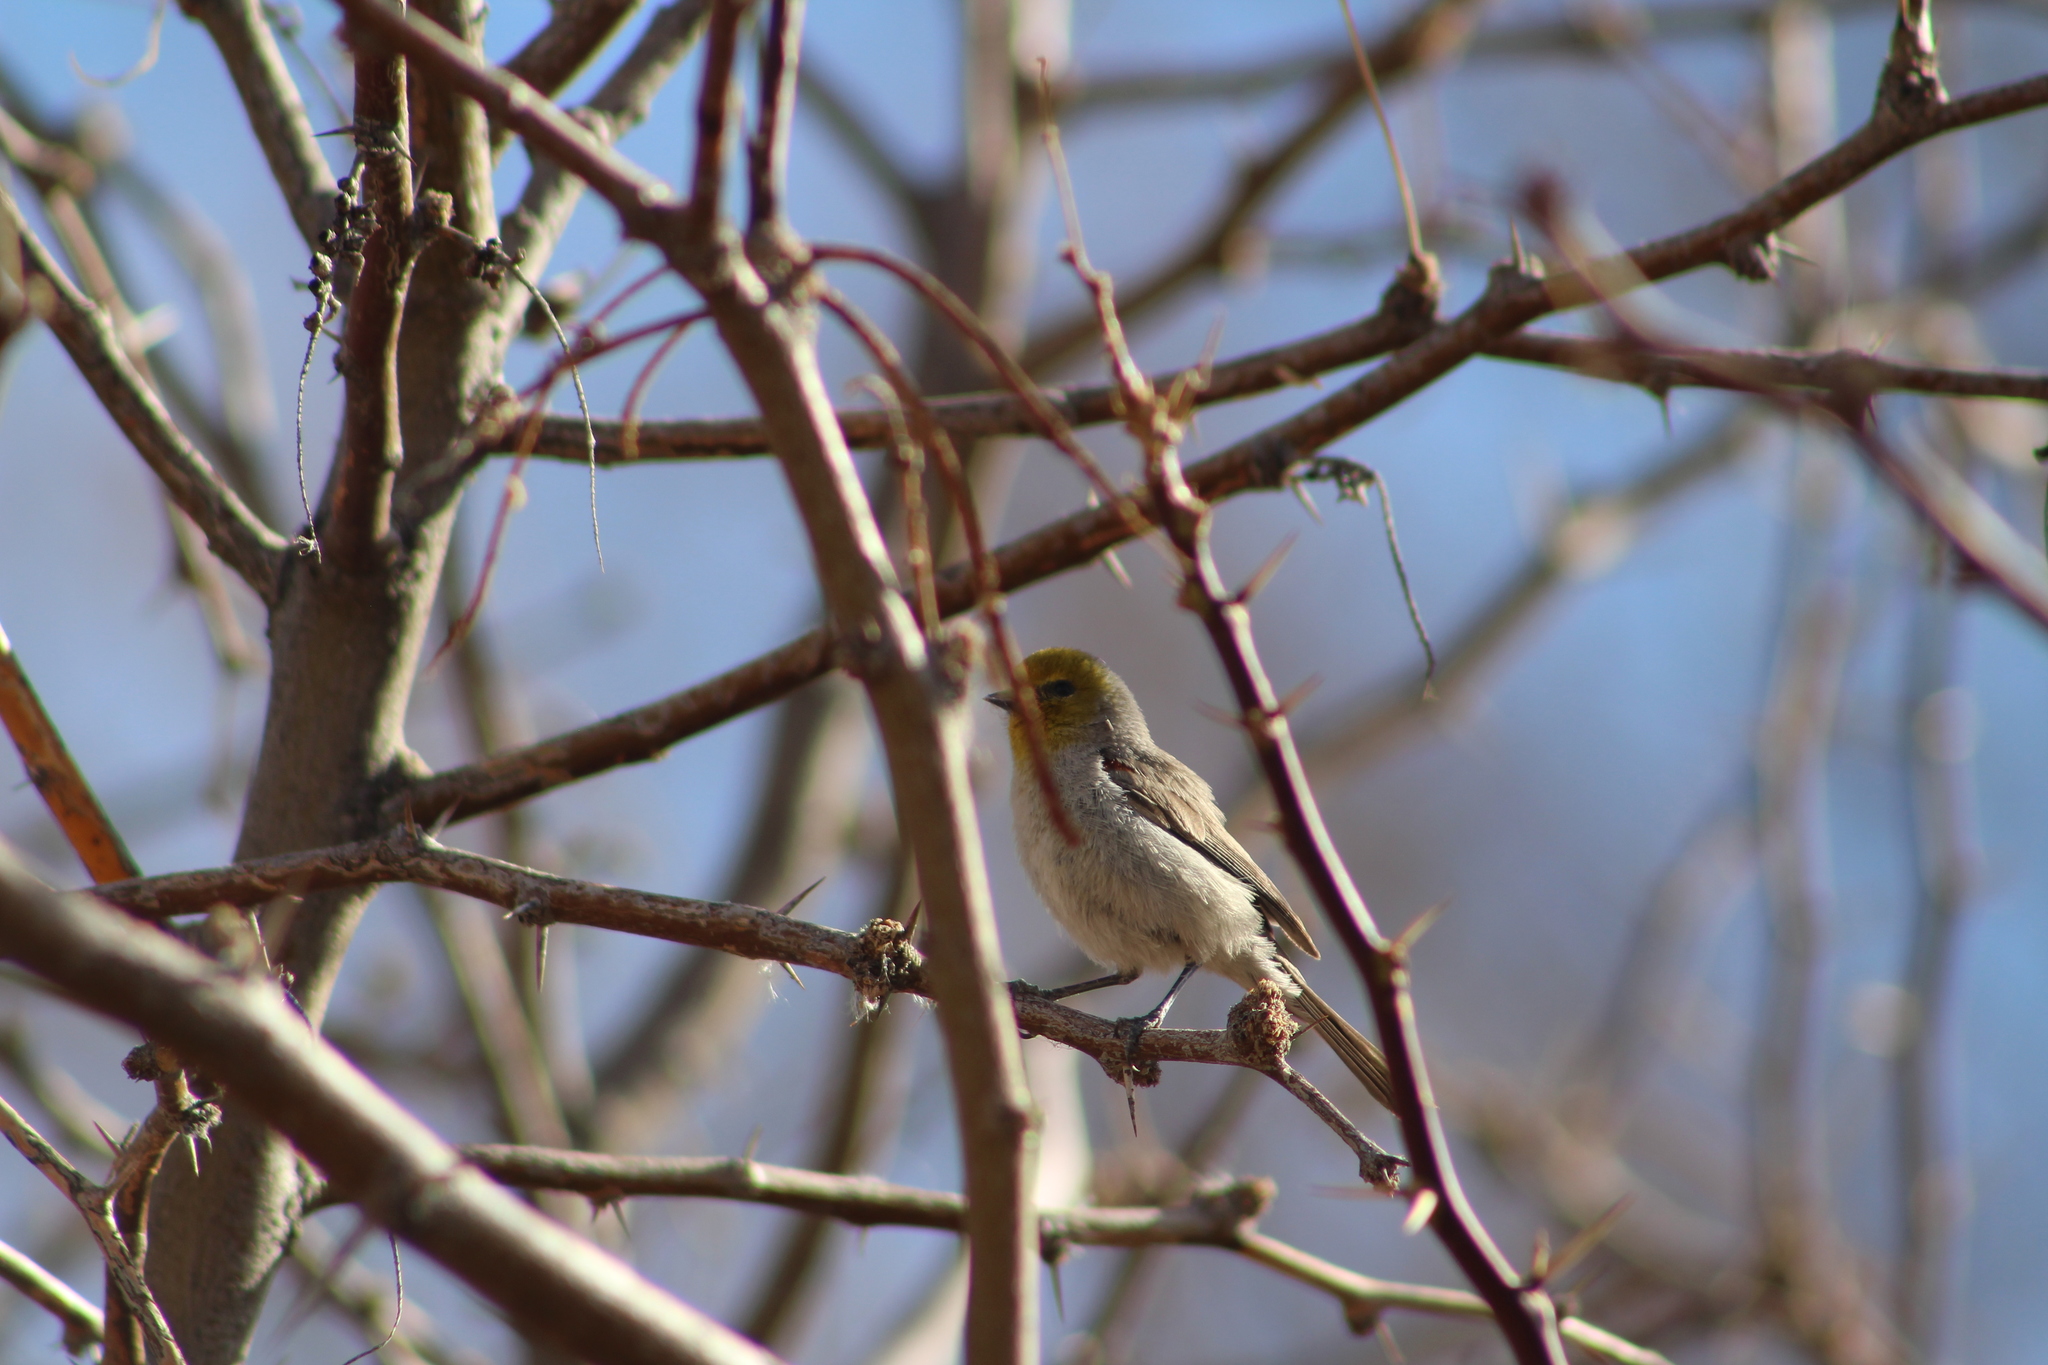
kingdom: Animalia
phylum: Chordata
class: Aves
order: Passeriformes
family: Remizidae
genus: Auriparus
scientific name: Auriparus flaviceps
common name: Verdin
